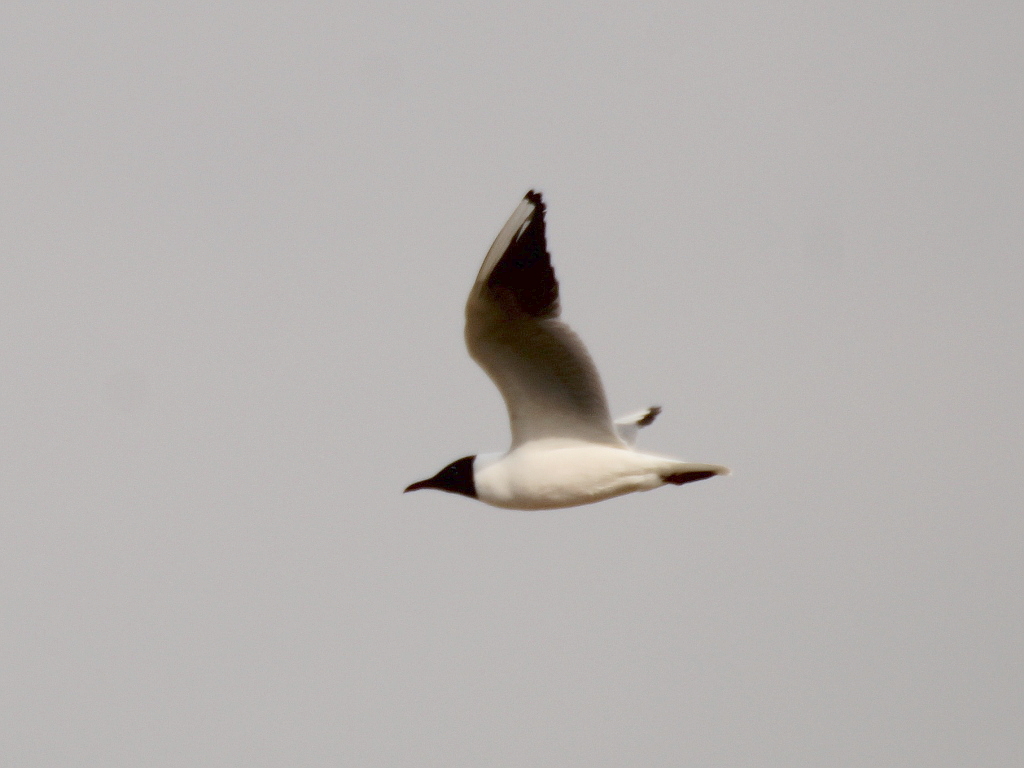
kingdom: Animalia
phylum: Chordata
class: Aves
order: Charadriiformes
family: Laridae
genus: Chroicocephalus
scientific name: Chroicocephalus ridibundus
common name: Black-headed gull
